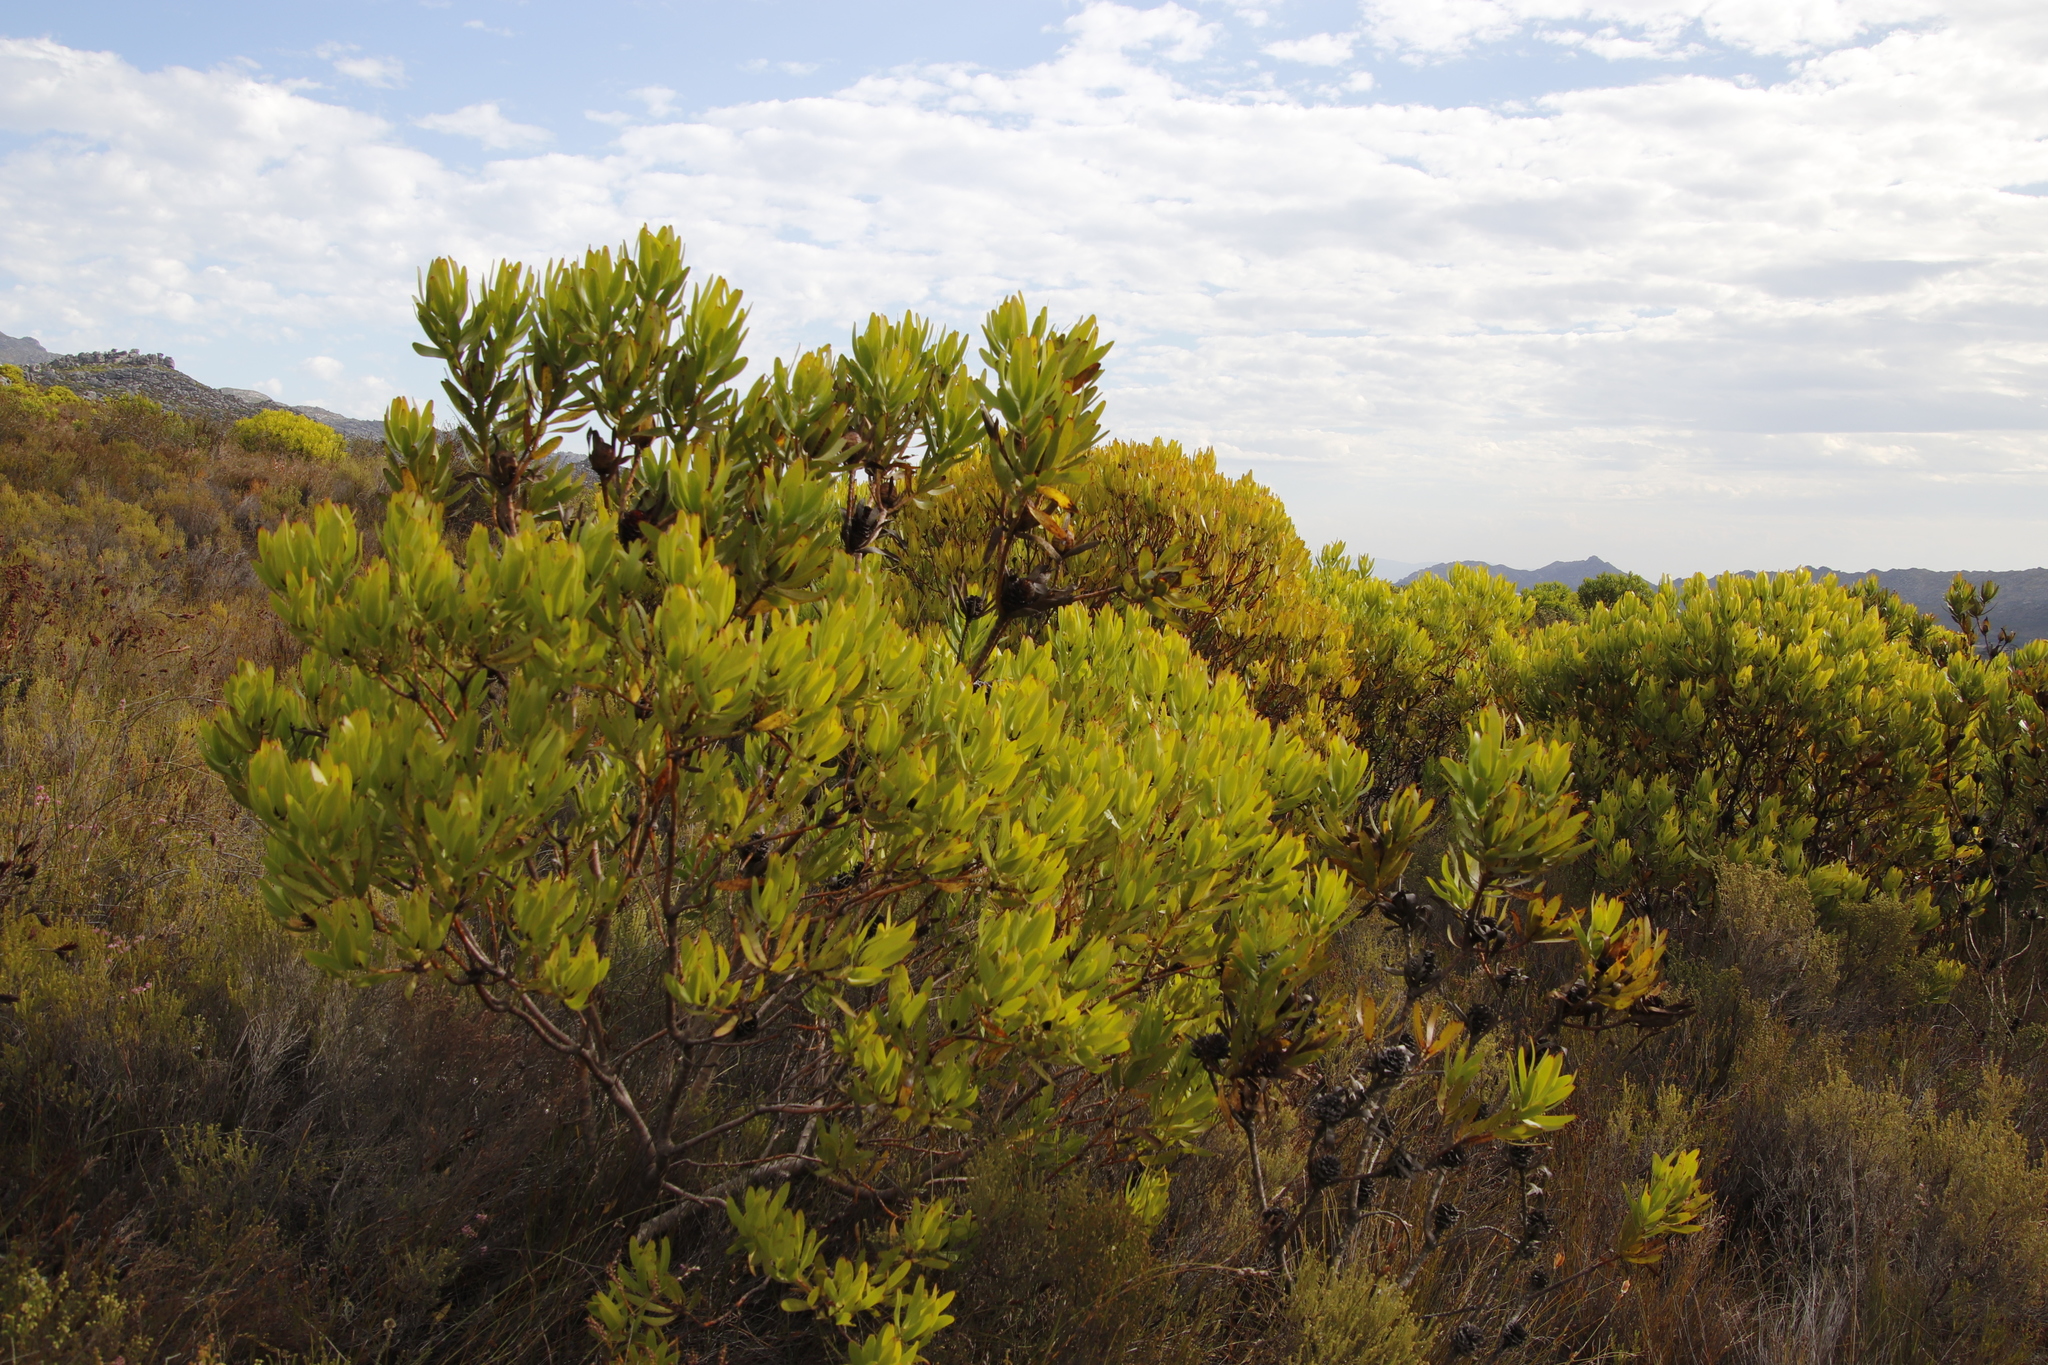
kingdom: Plantae
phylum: Tracheophyta
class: Magnoliopsida
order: Proteales
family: Proteaceae
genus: Leucadendron
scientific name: Leucadendron microcephalum
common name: Oilbract conebush
